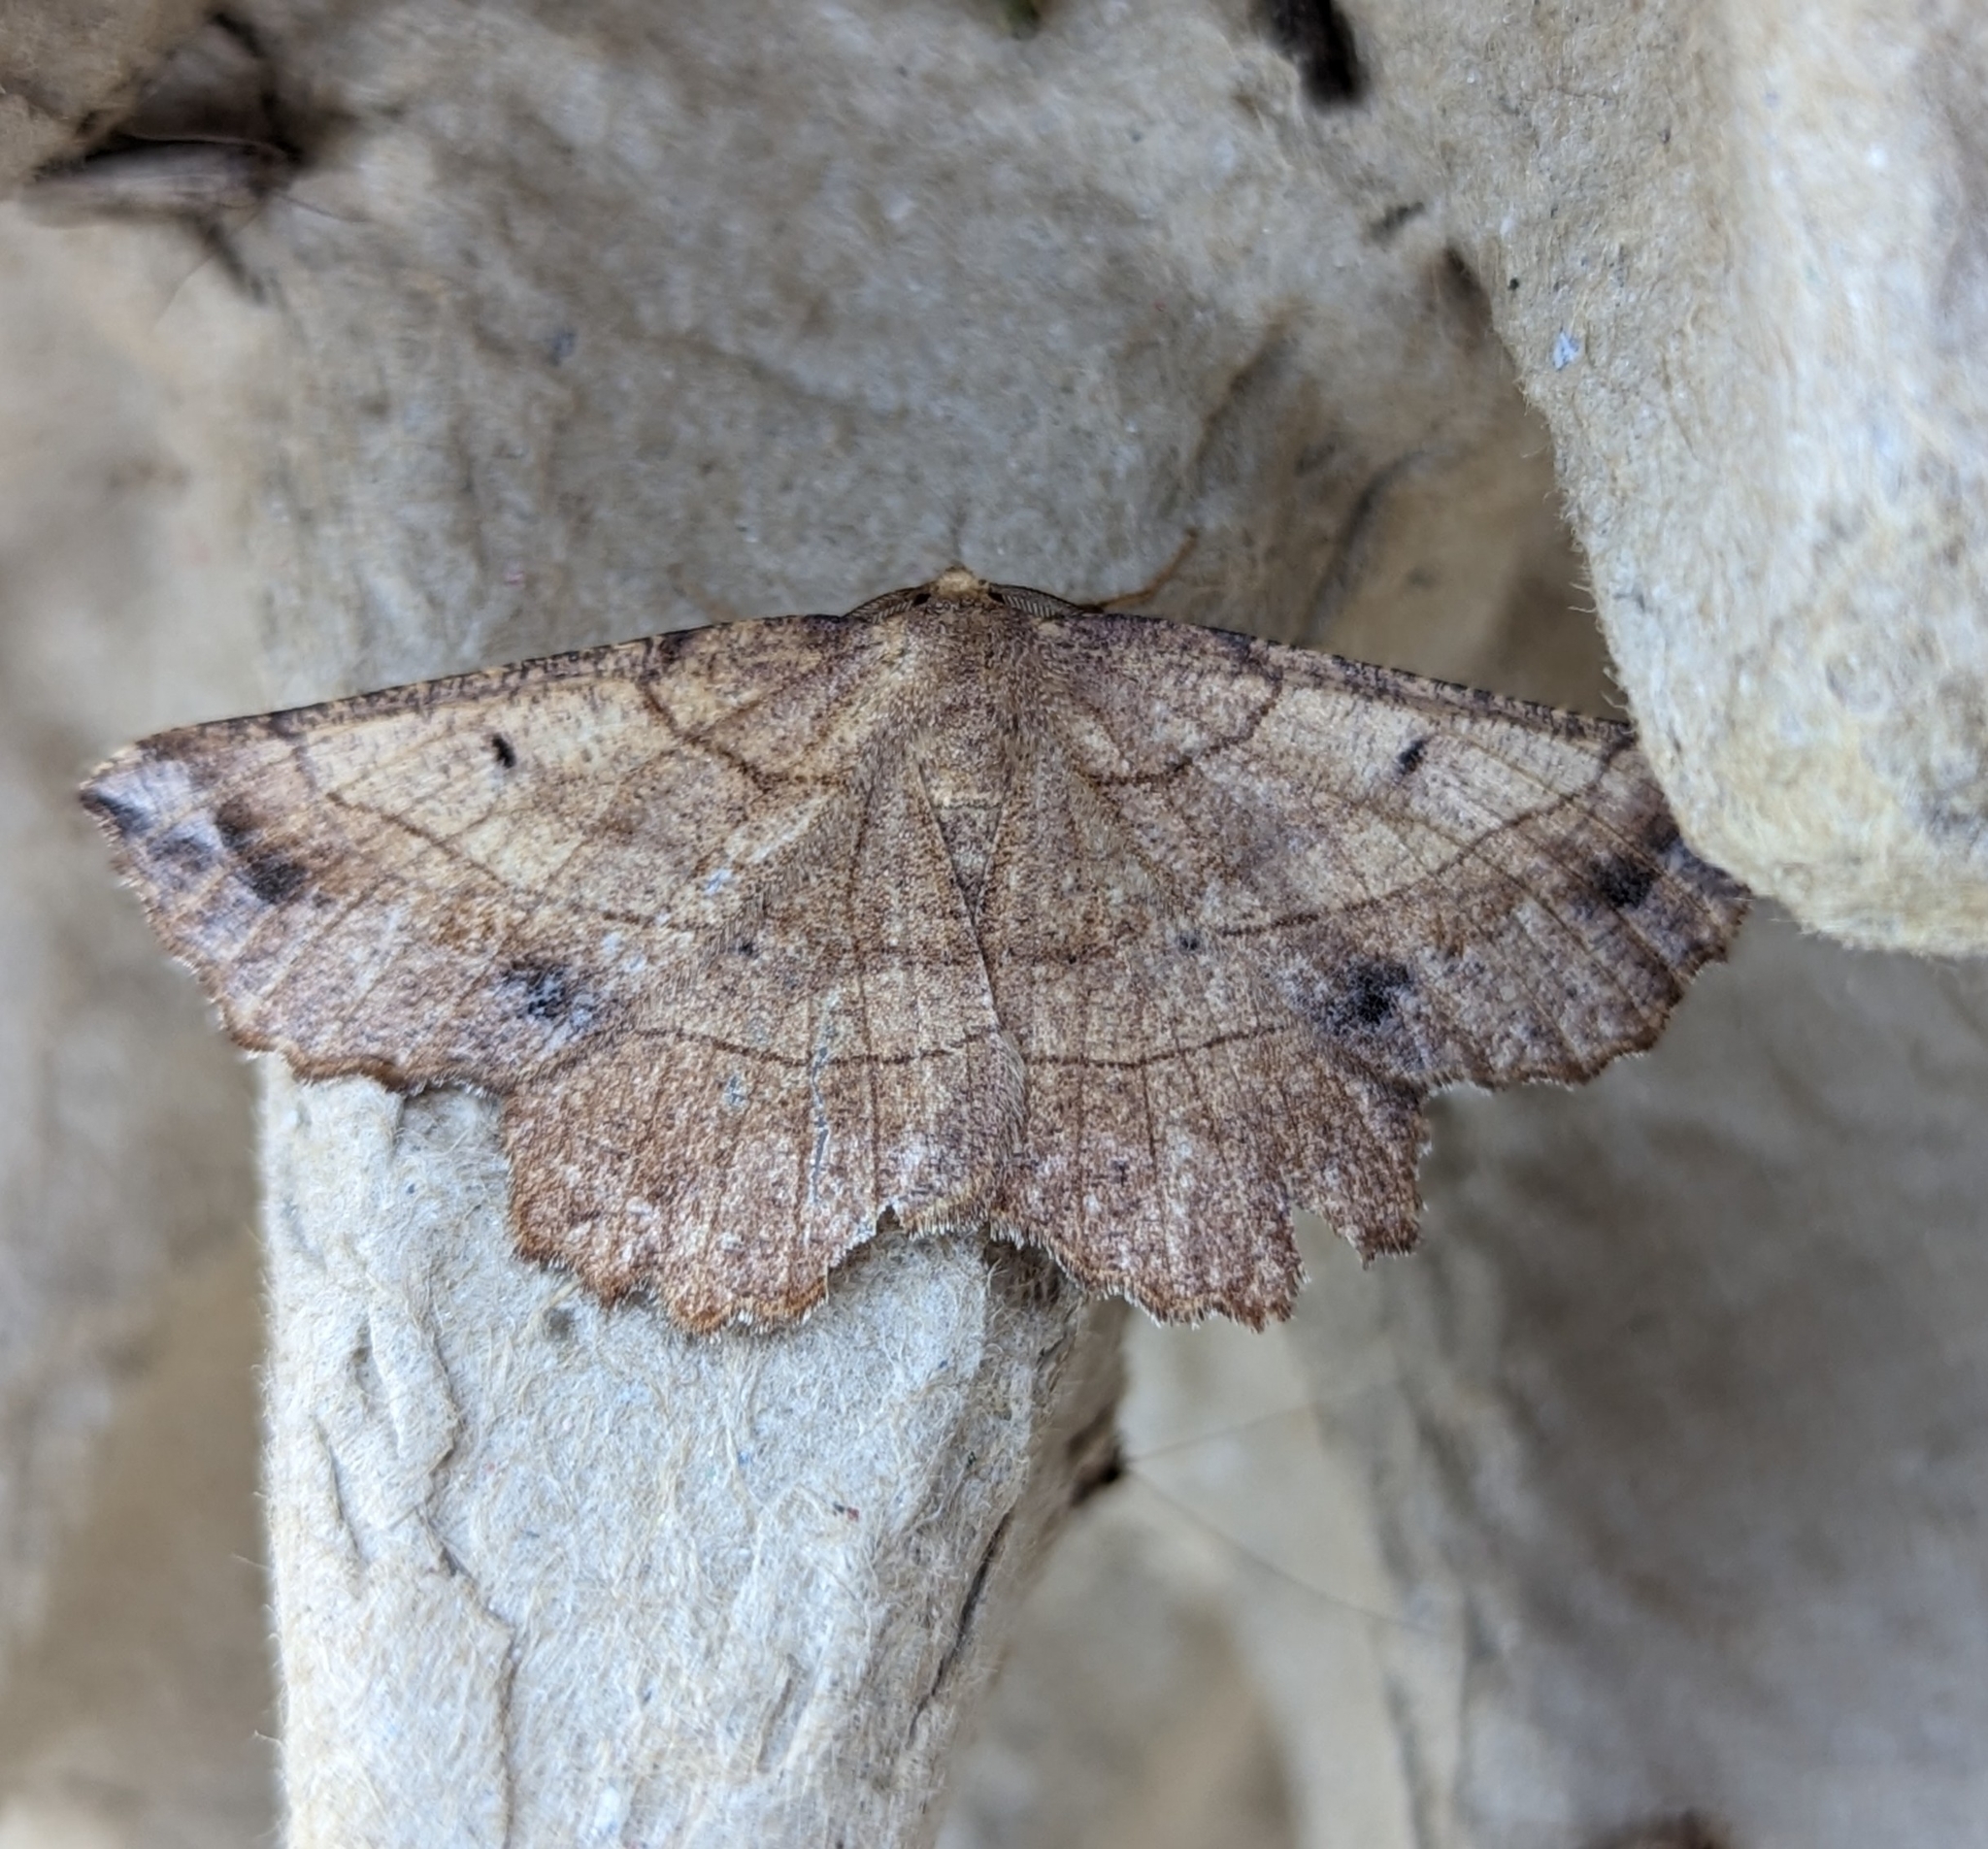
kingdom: Animalia
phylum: Arthropoda
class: Insecta
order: Lepidoptera
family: Geometridae
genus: Euchlaena
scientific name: Euchlaena johnsonaria
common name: Johnson's euchlaena
